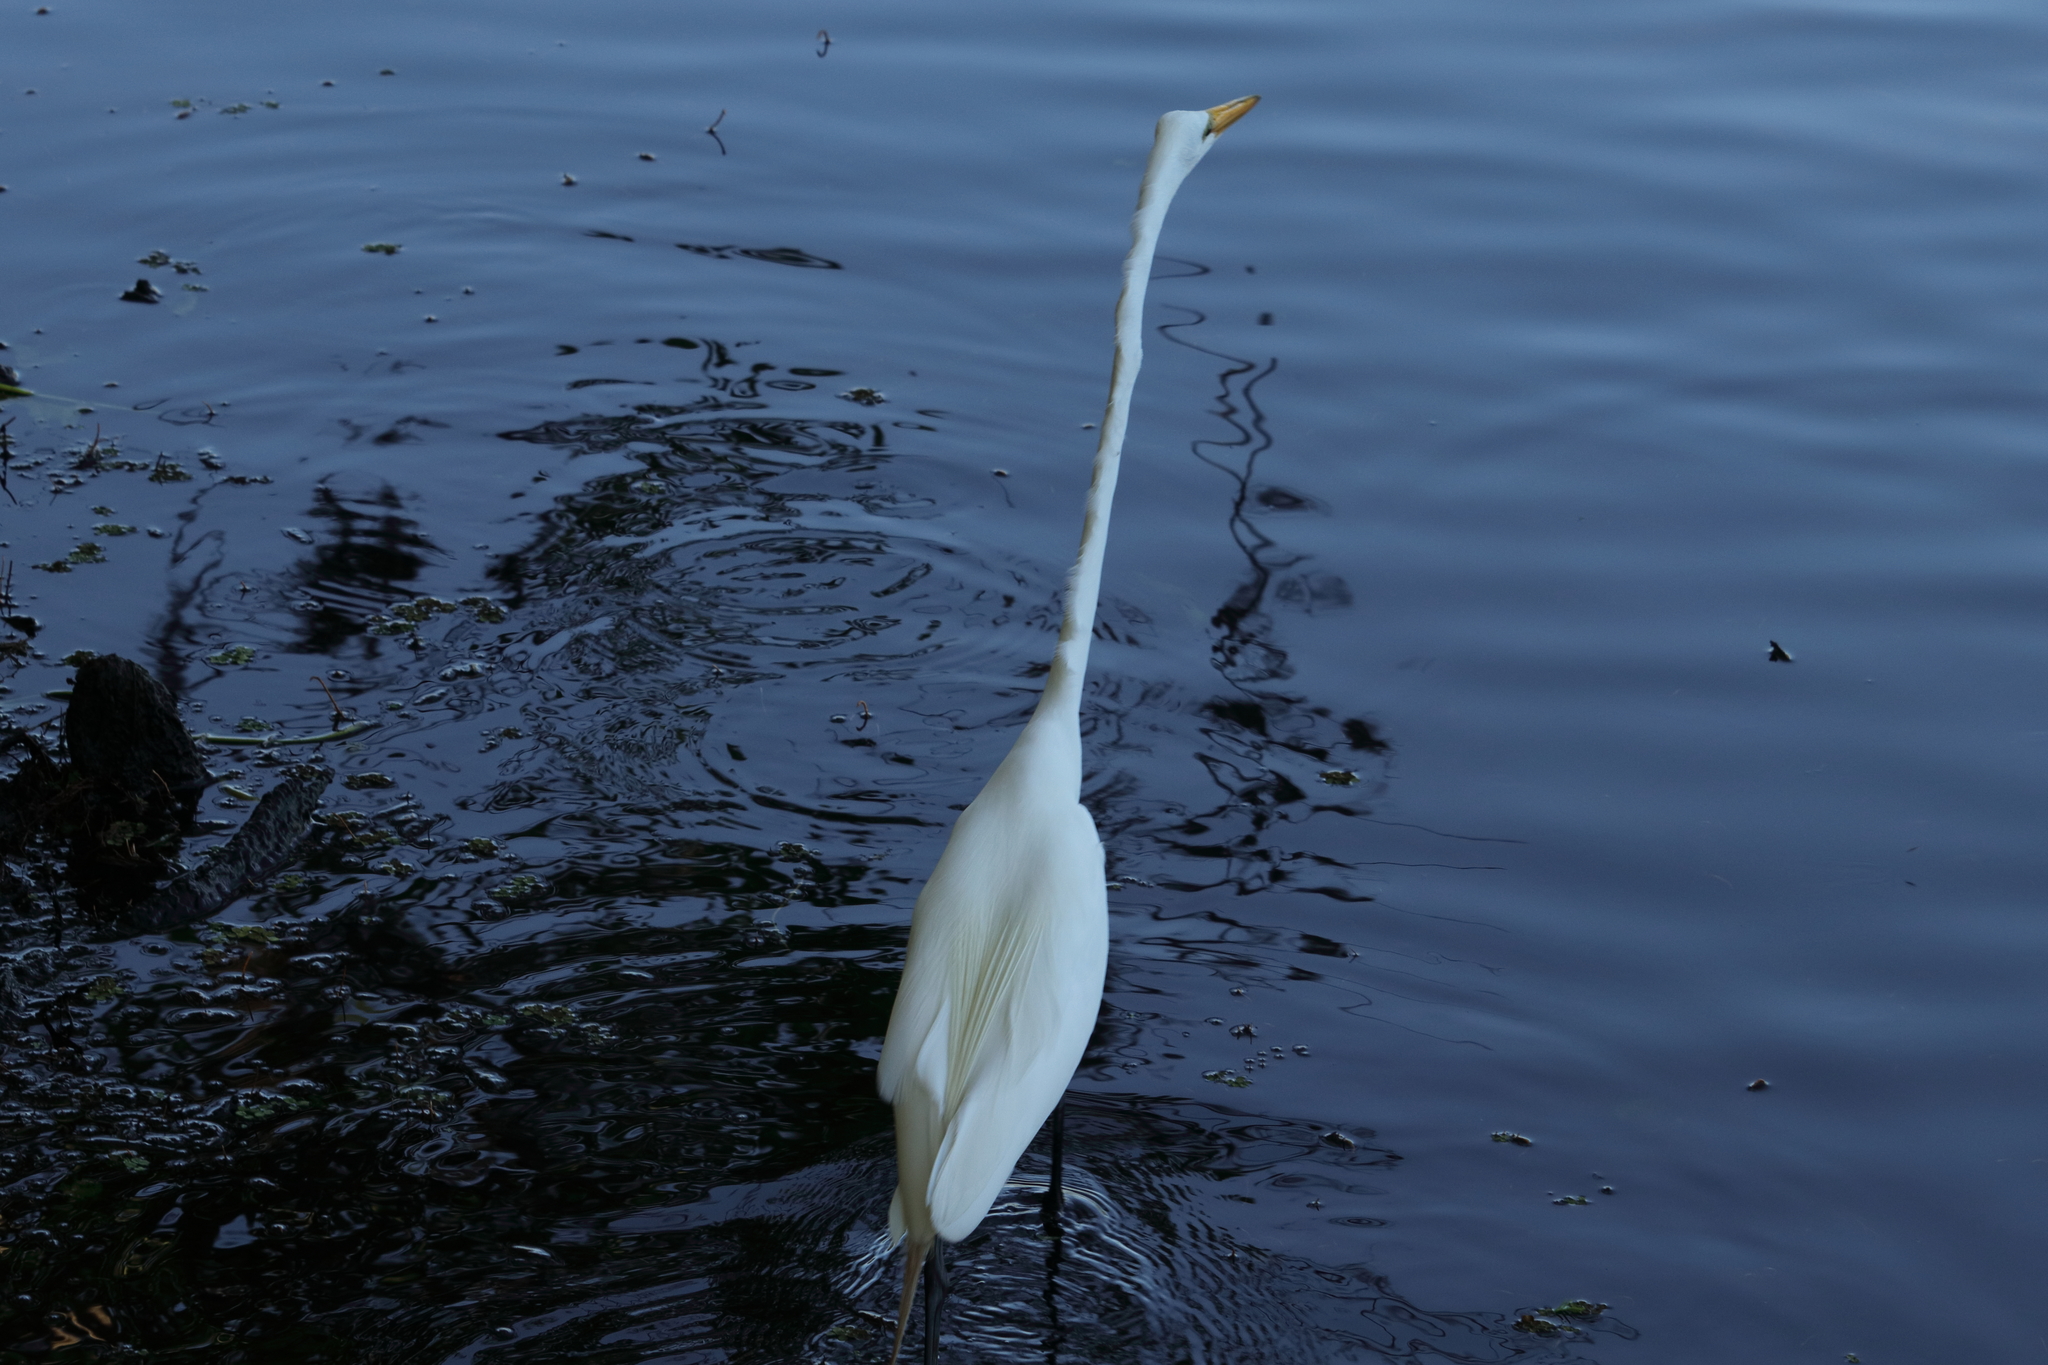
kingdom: Animalia
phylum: Chordata
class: Aves
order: Pelecaniformes
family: Ardeidae
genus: Ardea
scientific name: Ardea alba
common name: Great egret
